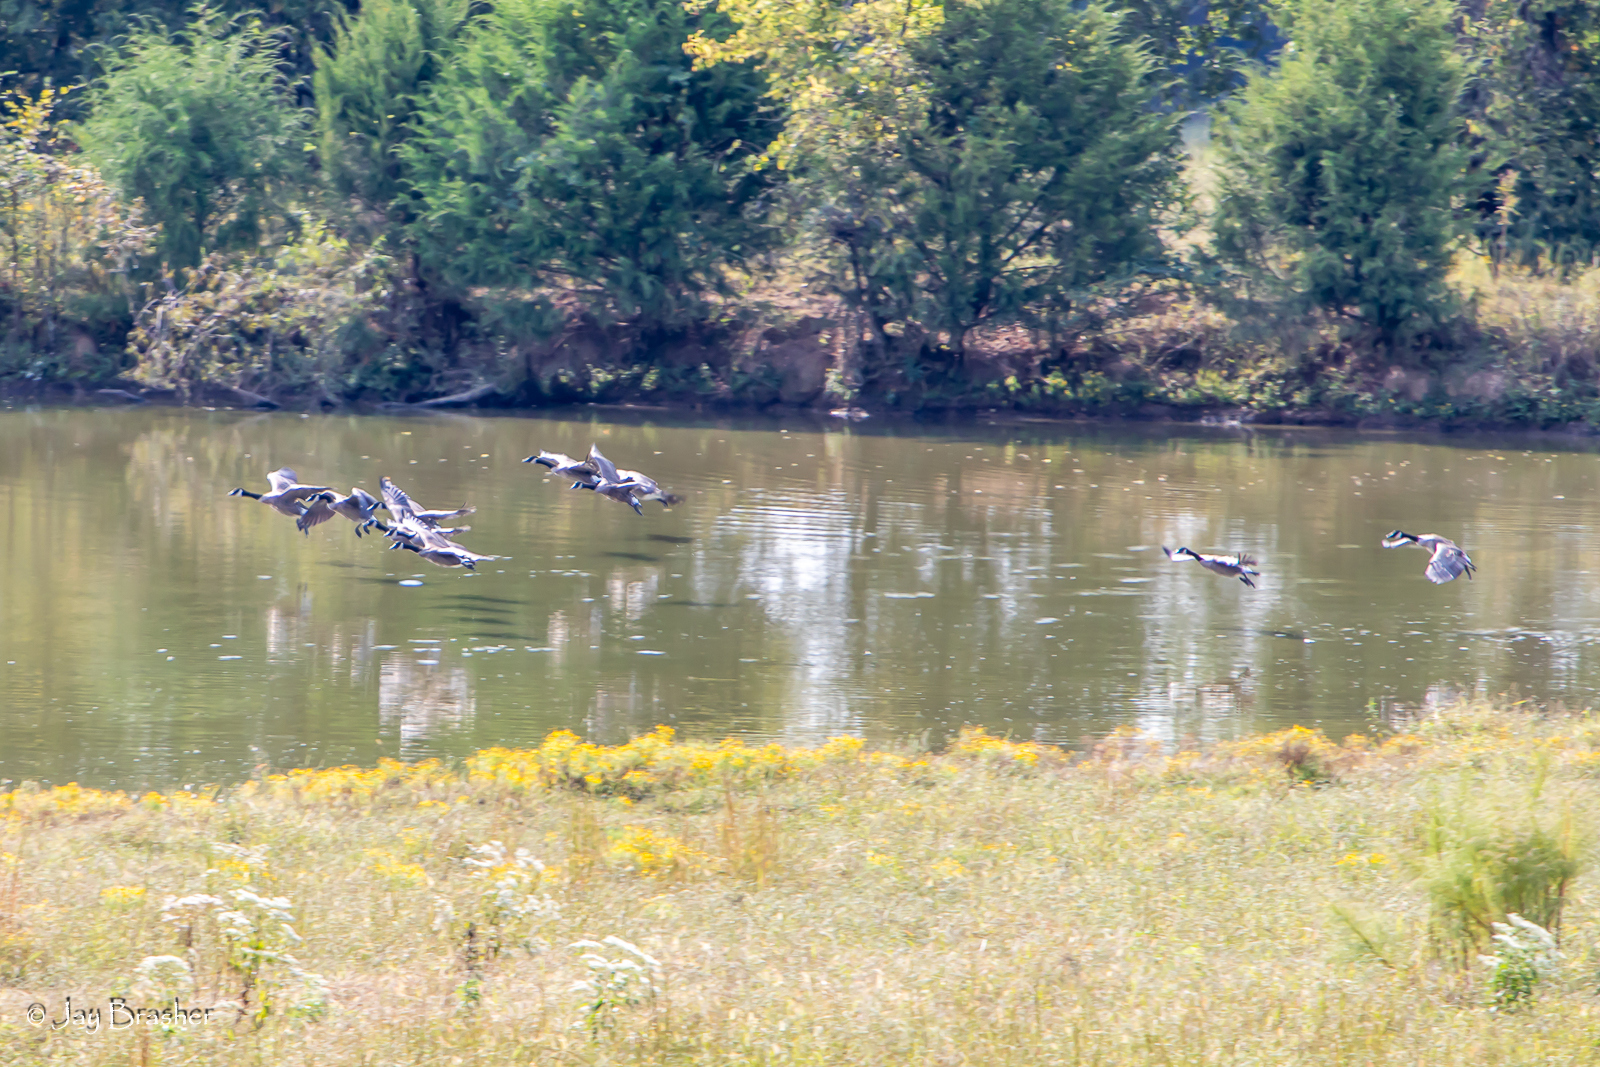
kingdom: Animalia
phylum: Chordata
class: Aves
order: Anseriformes
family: Anatidae
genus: Branta
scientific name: Branta canadensis
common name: Canada goose
